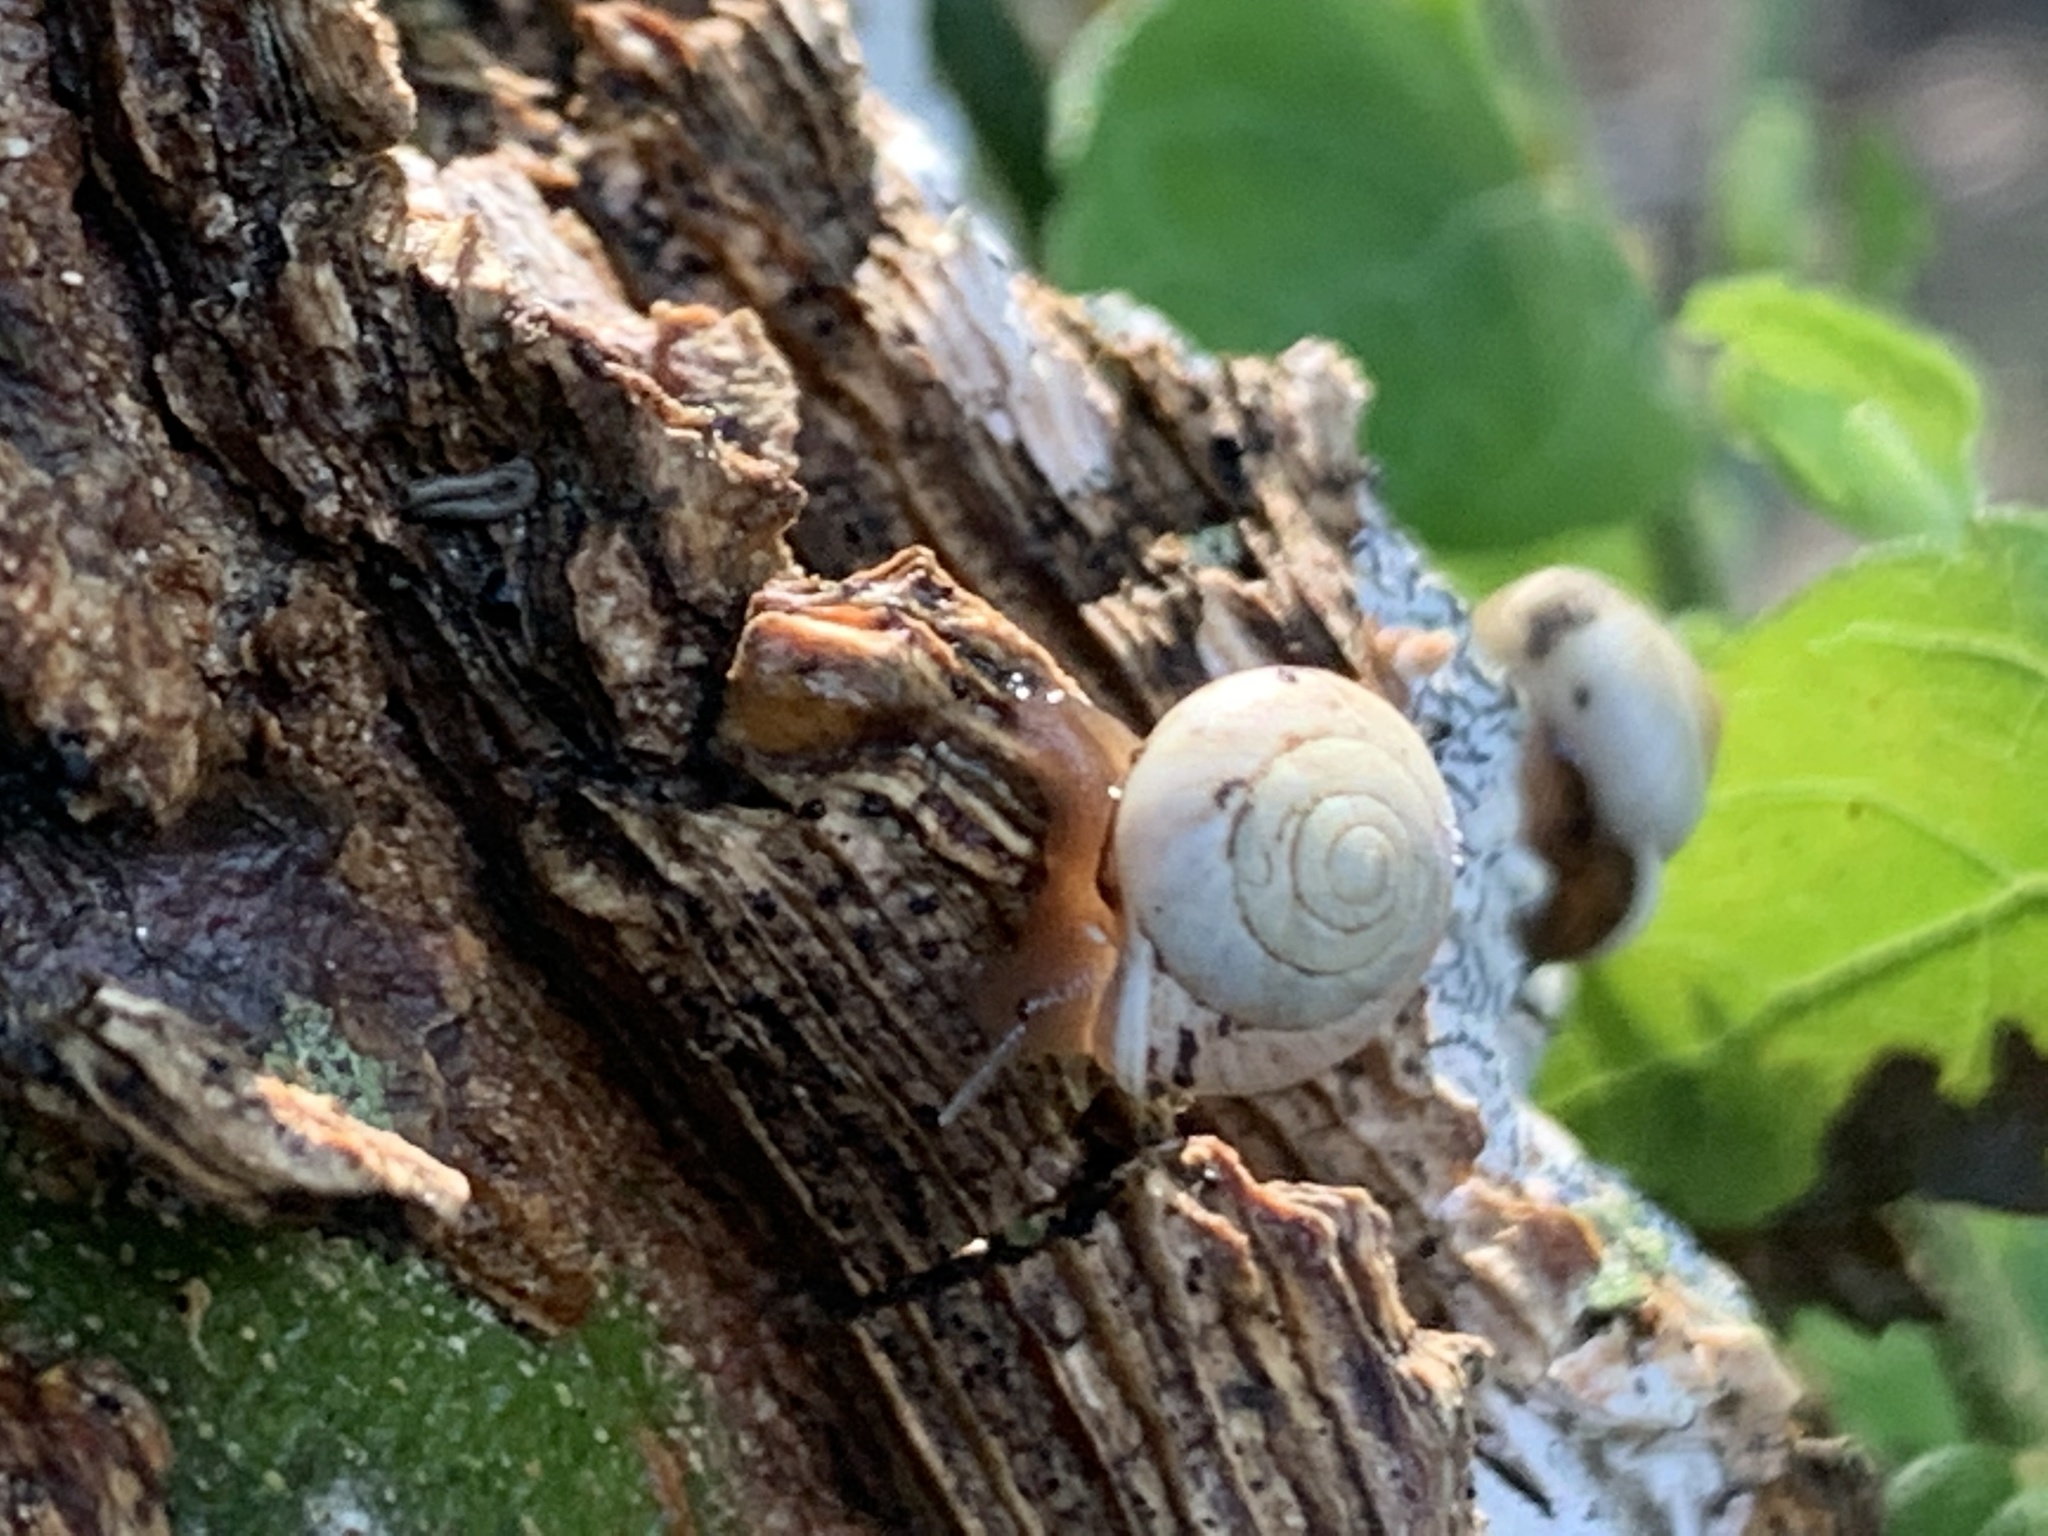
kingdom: Animalia
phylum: Mollusca
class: Gastropoda
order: Cycloneritida
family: Helicinidae
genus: Helicina
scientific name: Helicina orbiculata
